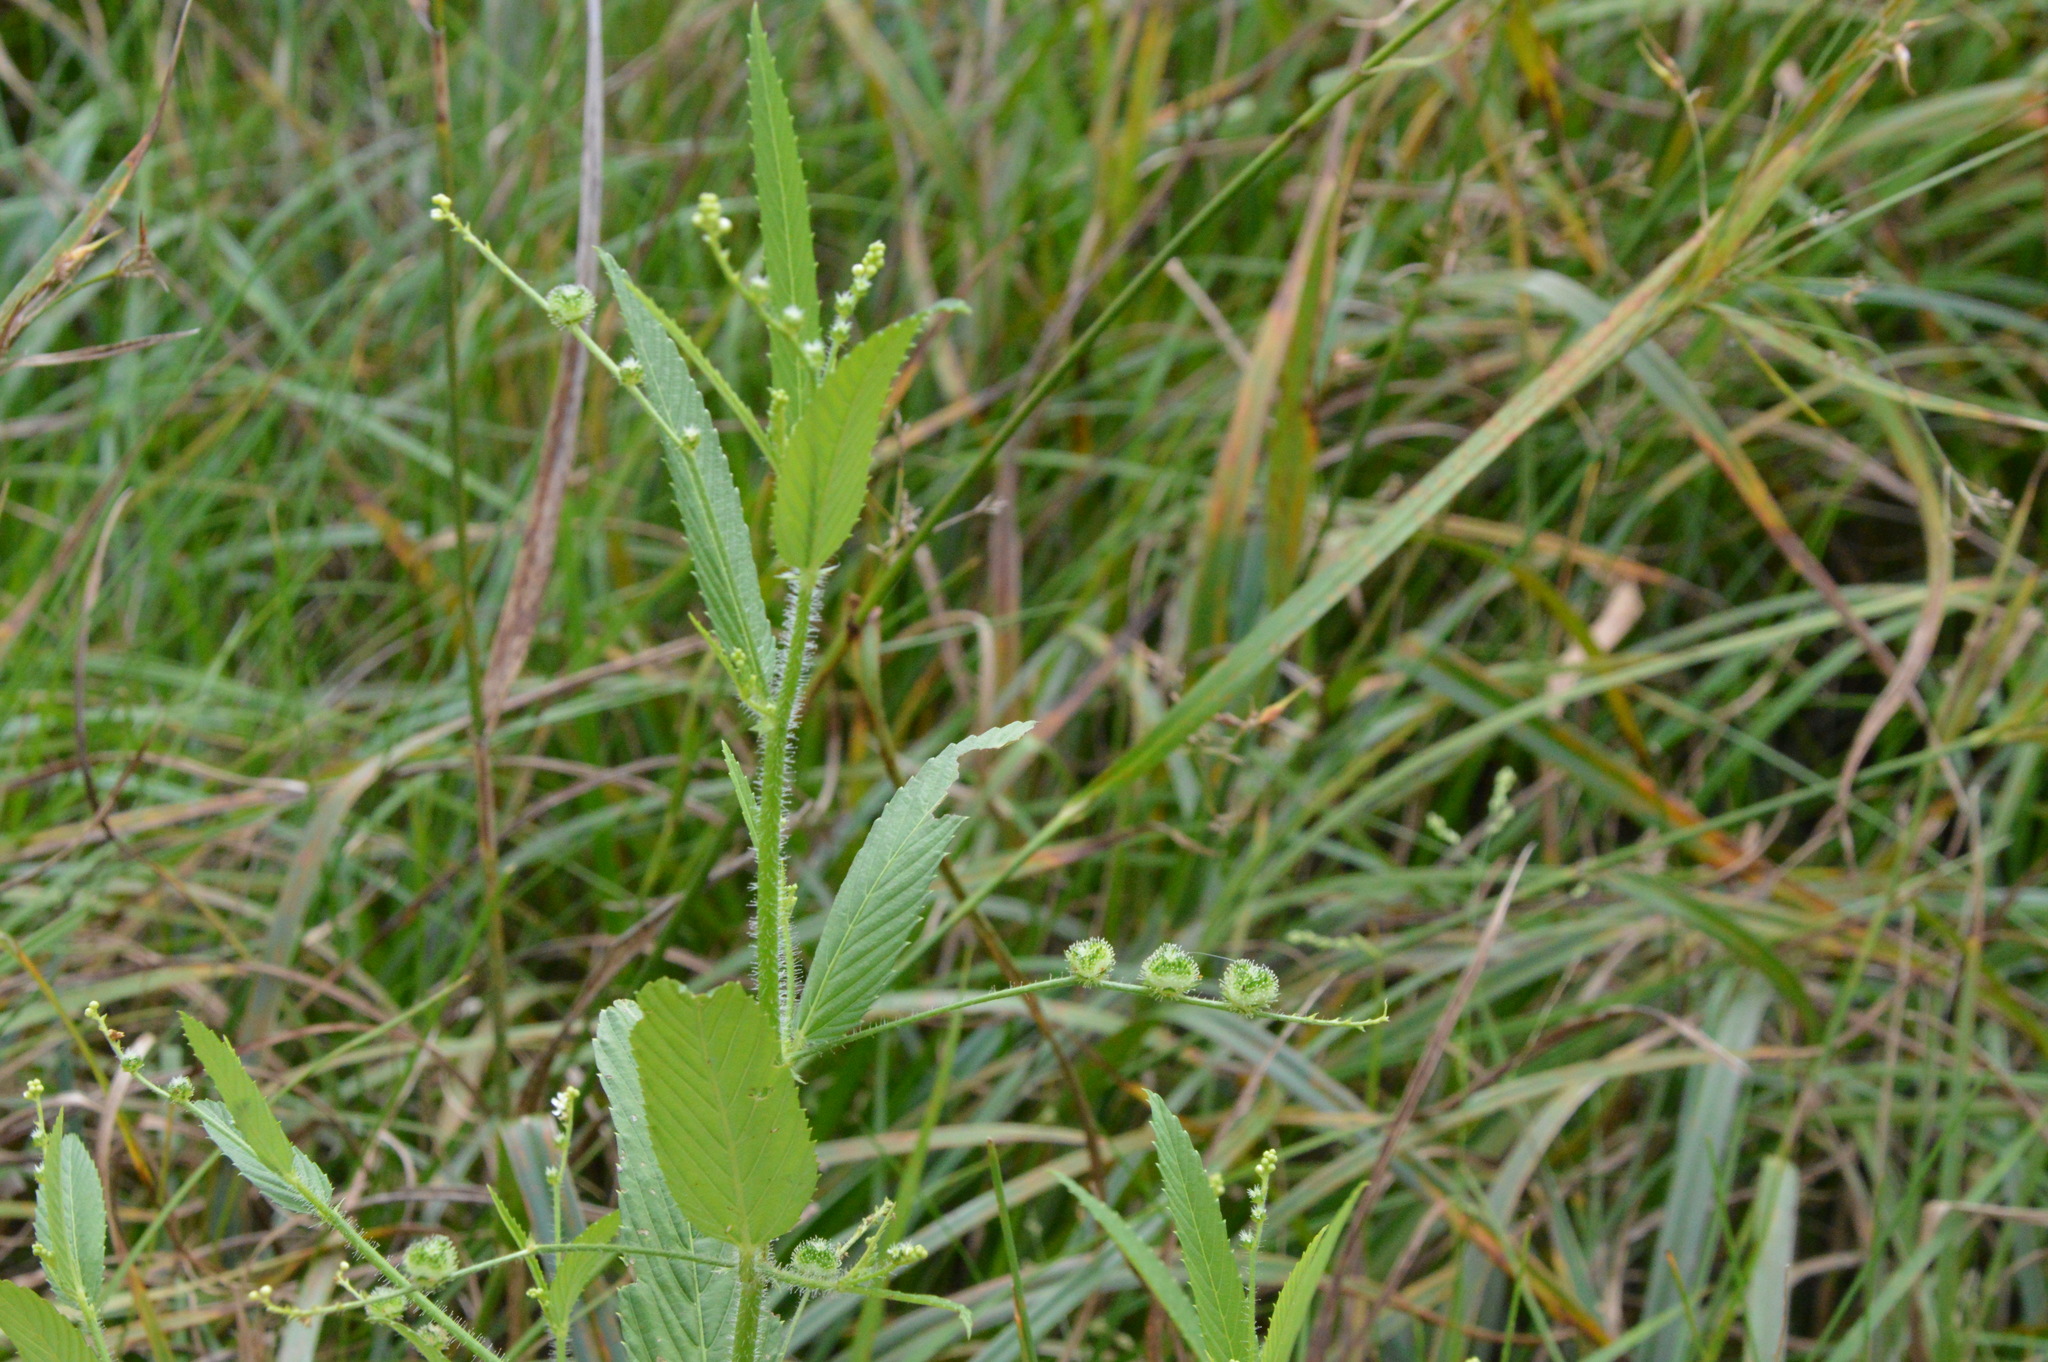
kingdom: Plantae
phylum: Tracheophyta
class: Magnoliopsida
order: Malpighiales
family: Euphorbiaceae
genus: Caperonia
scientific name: Caperonia palustris
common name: Sacatrapo
